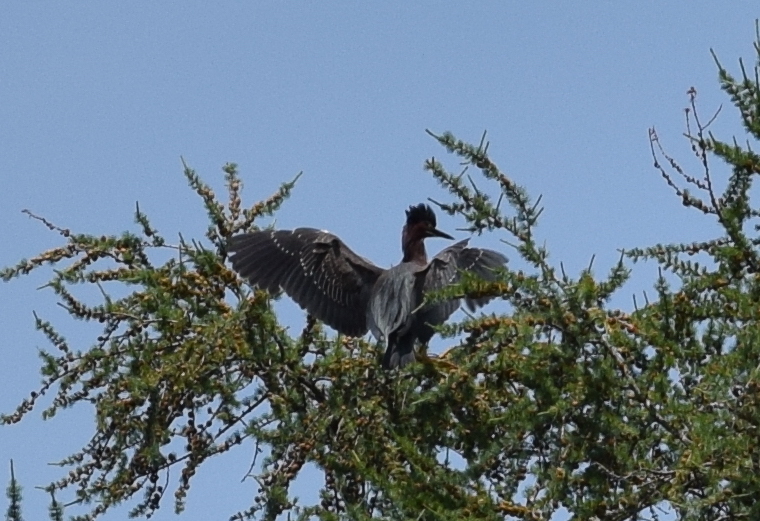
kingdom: Animalia
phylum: Chordata
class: Aves
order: Pelecaniformes
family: Ardeidae
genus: Butorides
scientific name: Butorides virescens
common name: Green heron
